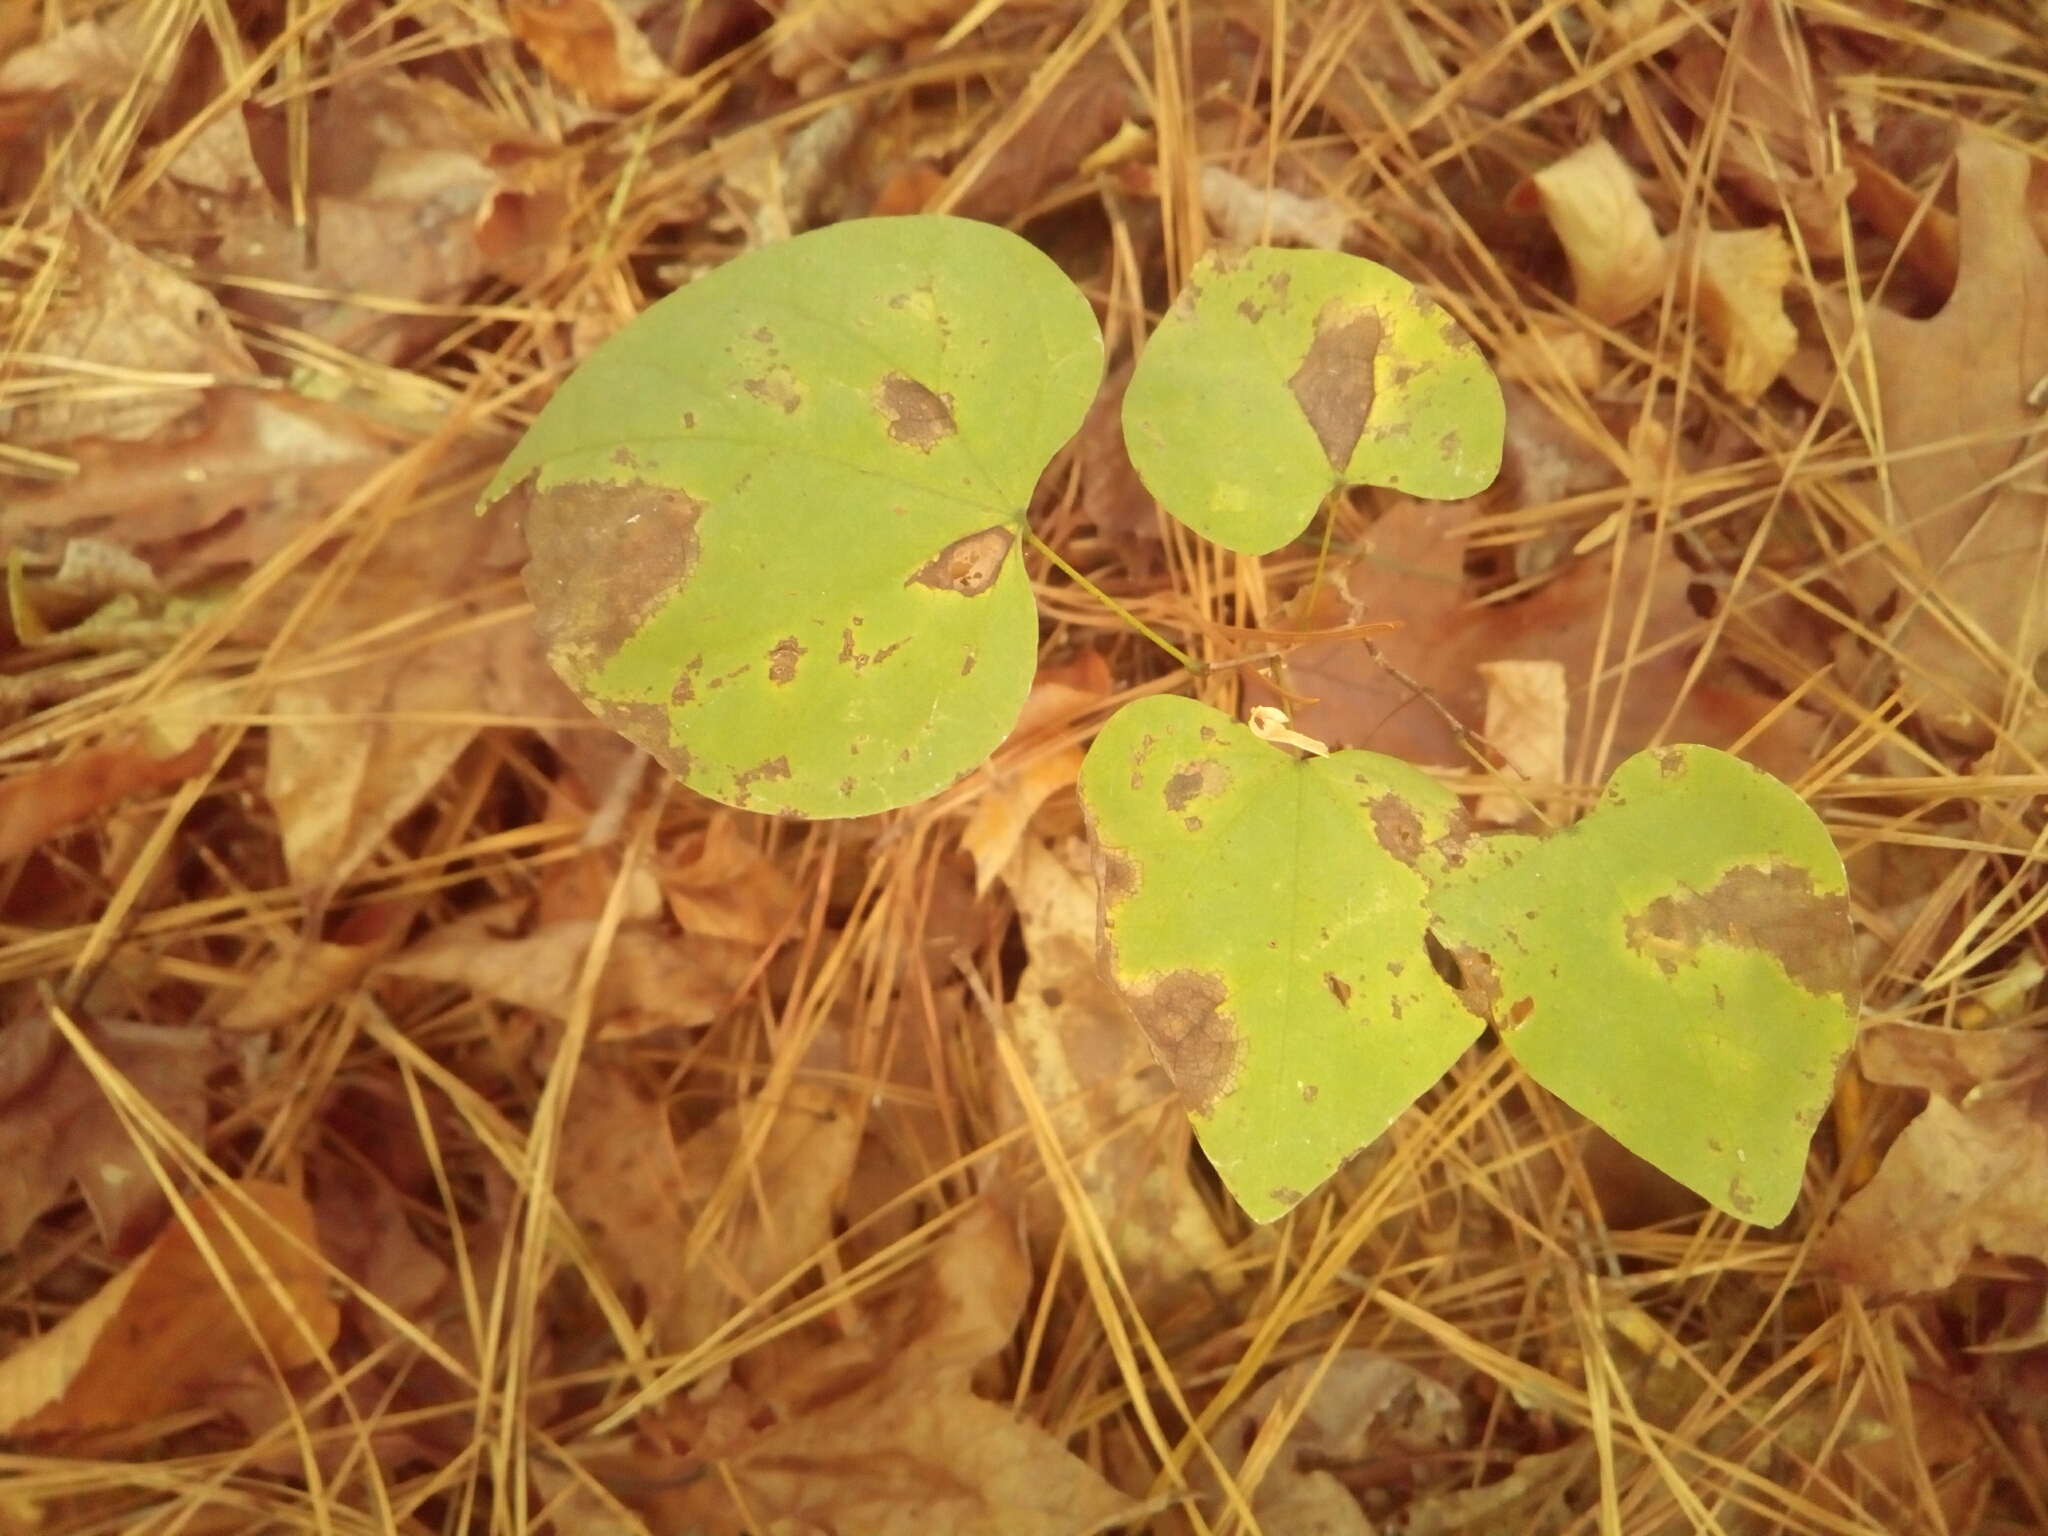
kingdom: Plantae
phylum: Tracheophyta
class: Magnoliopsida
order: Fabales
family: Fabaceae
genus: Cercis
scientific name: Cercis canadensis
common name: Eastern redbud
